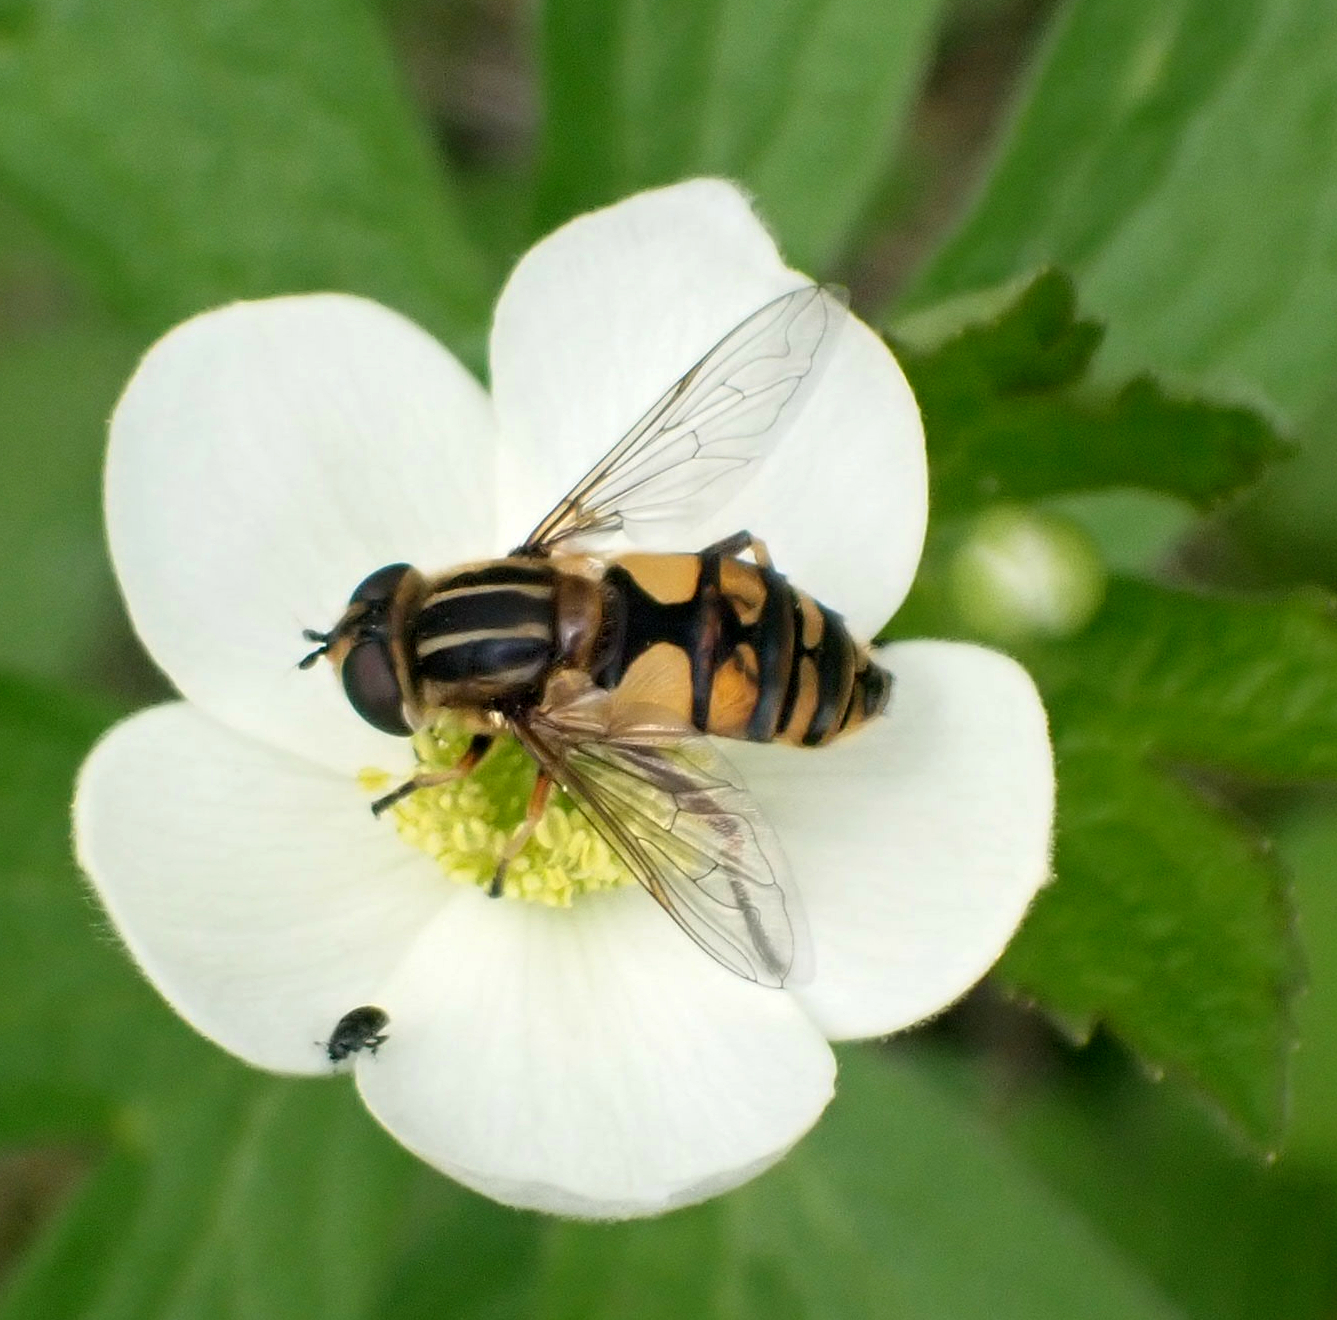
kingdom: Animalia
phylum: Arthropoda
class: Insecta
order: Diptera
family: Syrphidae
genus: Helophilus
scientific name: Helophilus hybridus
